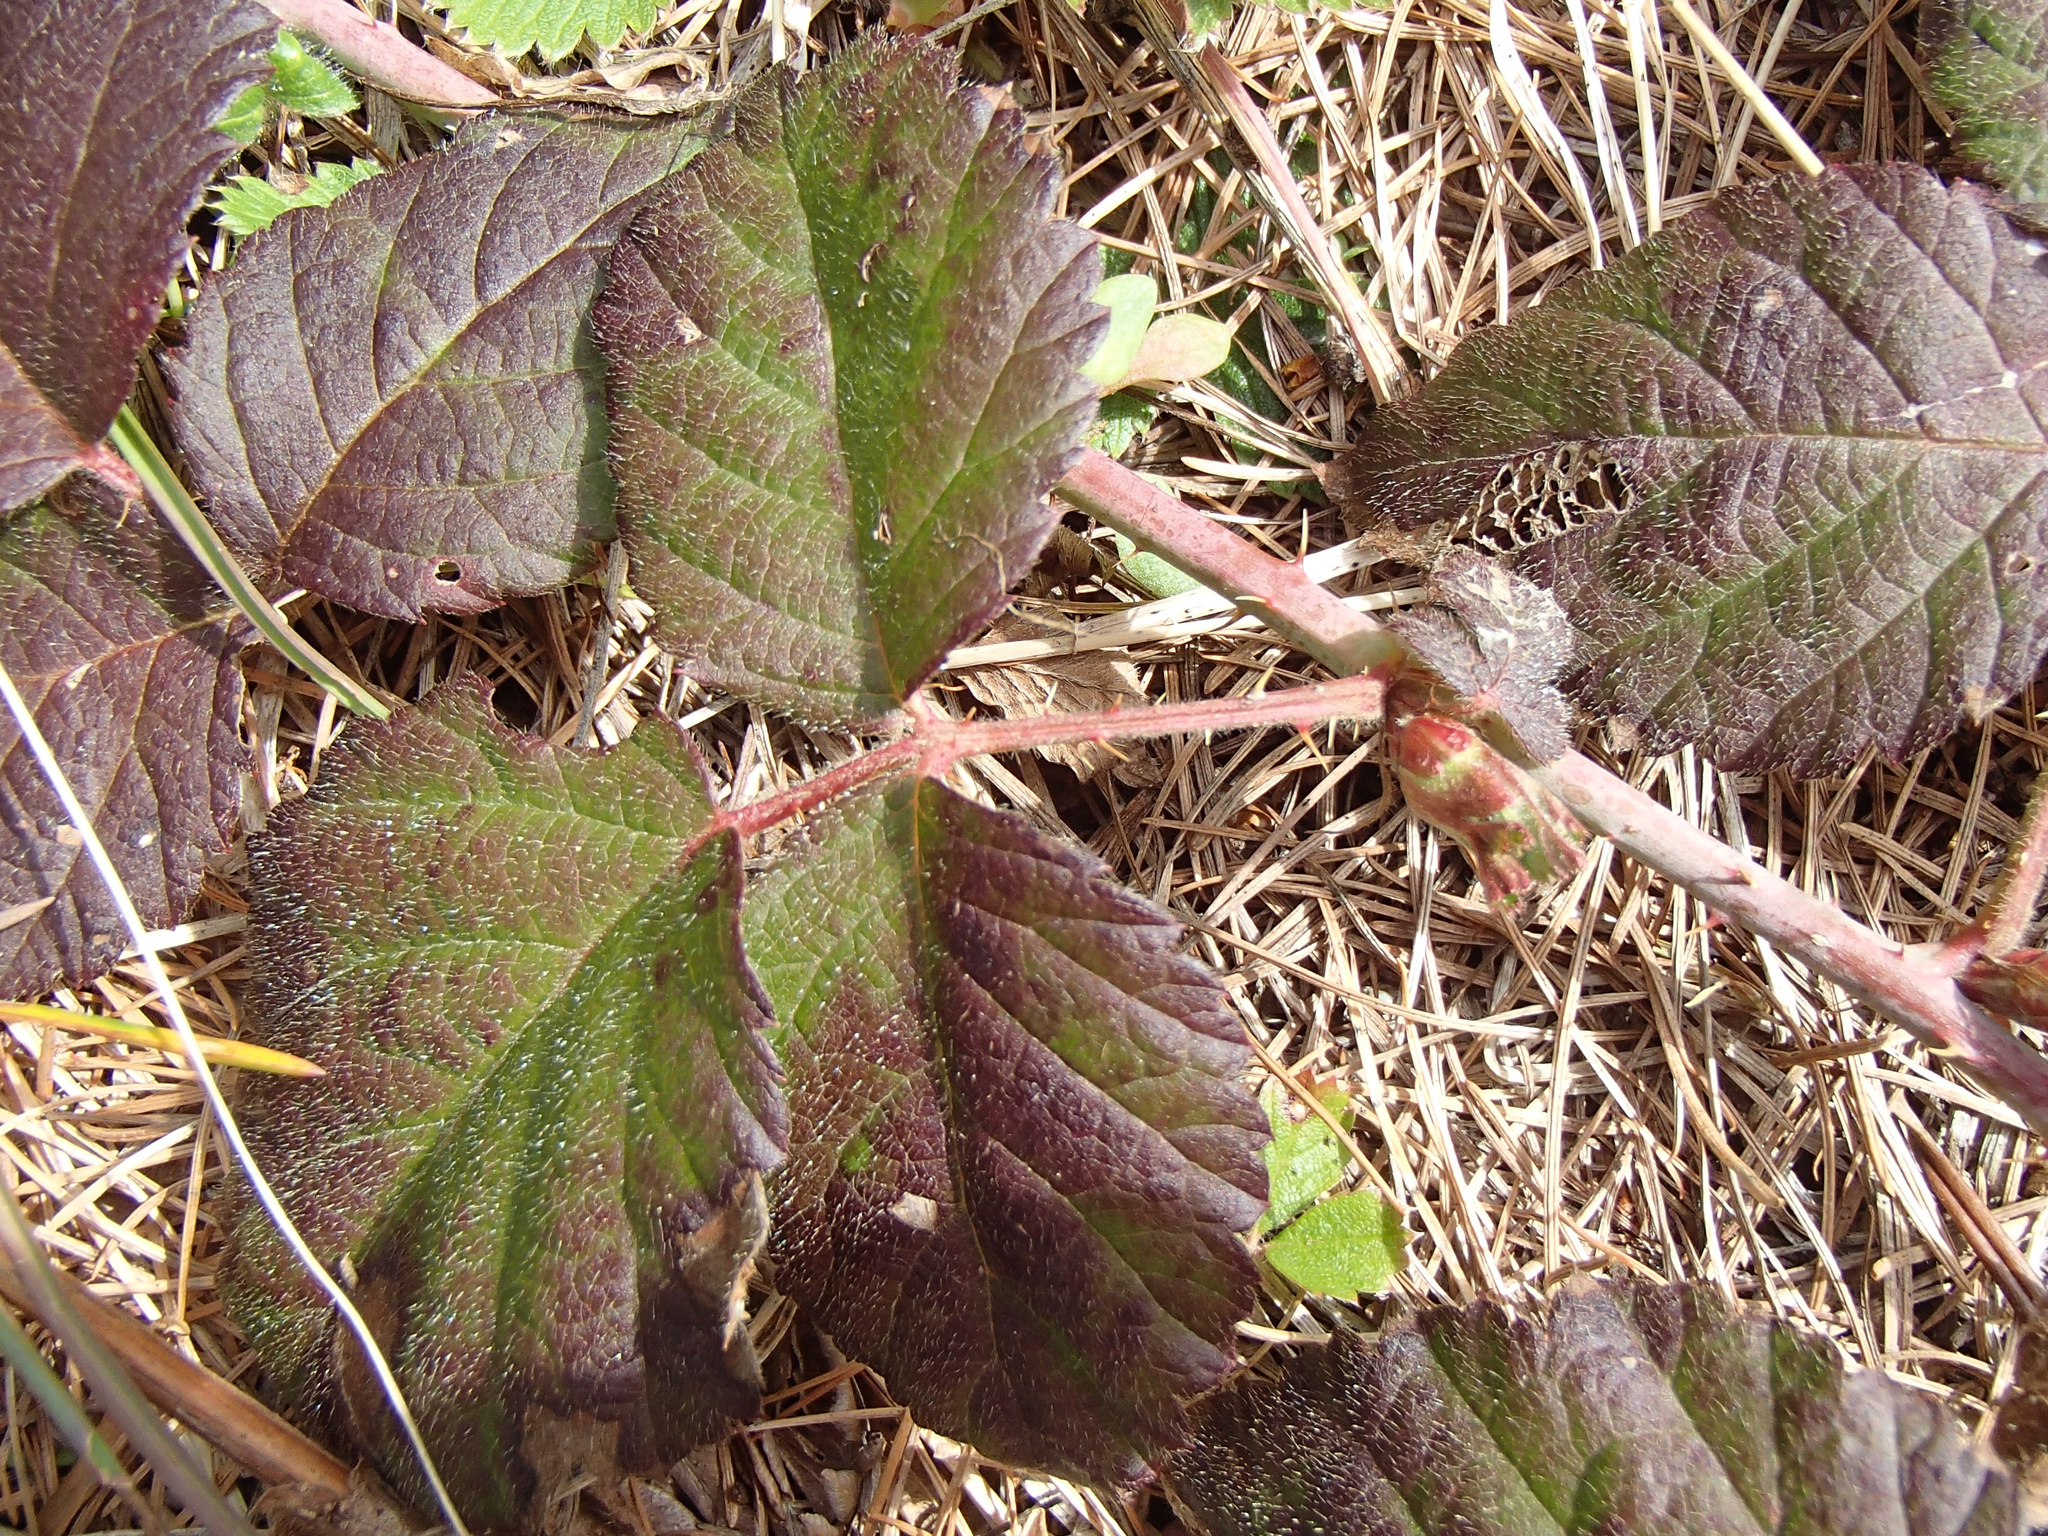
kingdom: Plantae
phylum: Tracheophyta
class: Magnoliopsida
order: Rosales
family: Rosaceae
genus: Rubus
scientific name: Rubus ursinus
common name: Pacific blackberry
